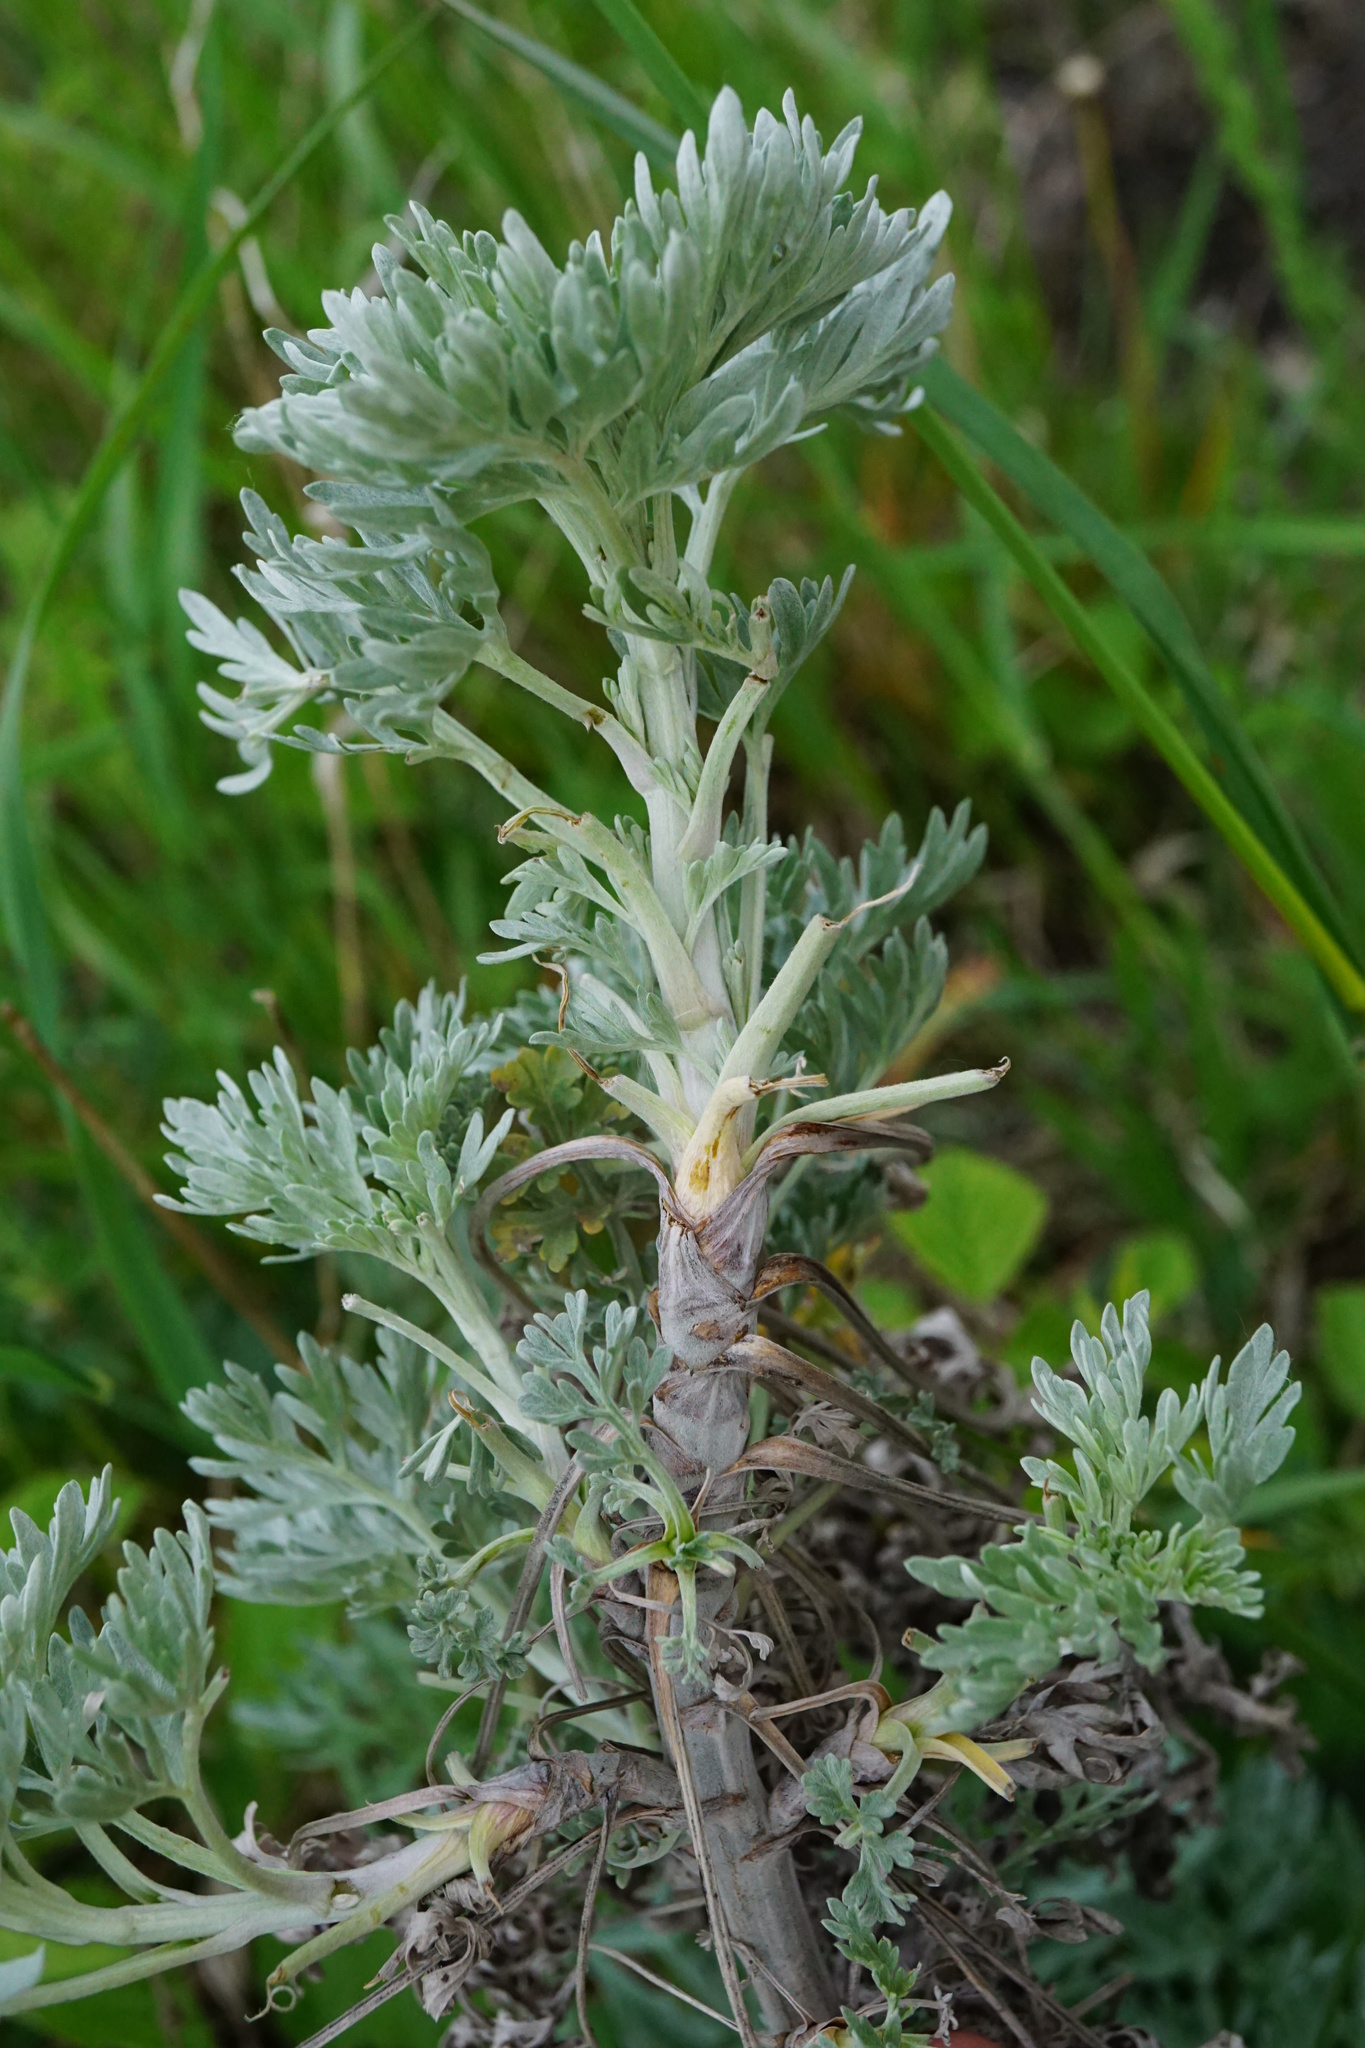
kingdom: Plantae
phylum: Tracheophyta
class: Magnoliopsida
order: Asterales
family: Asteraceae
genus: Artemisia
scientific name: Artemisia absinthium
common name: Wormwood
